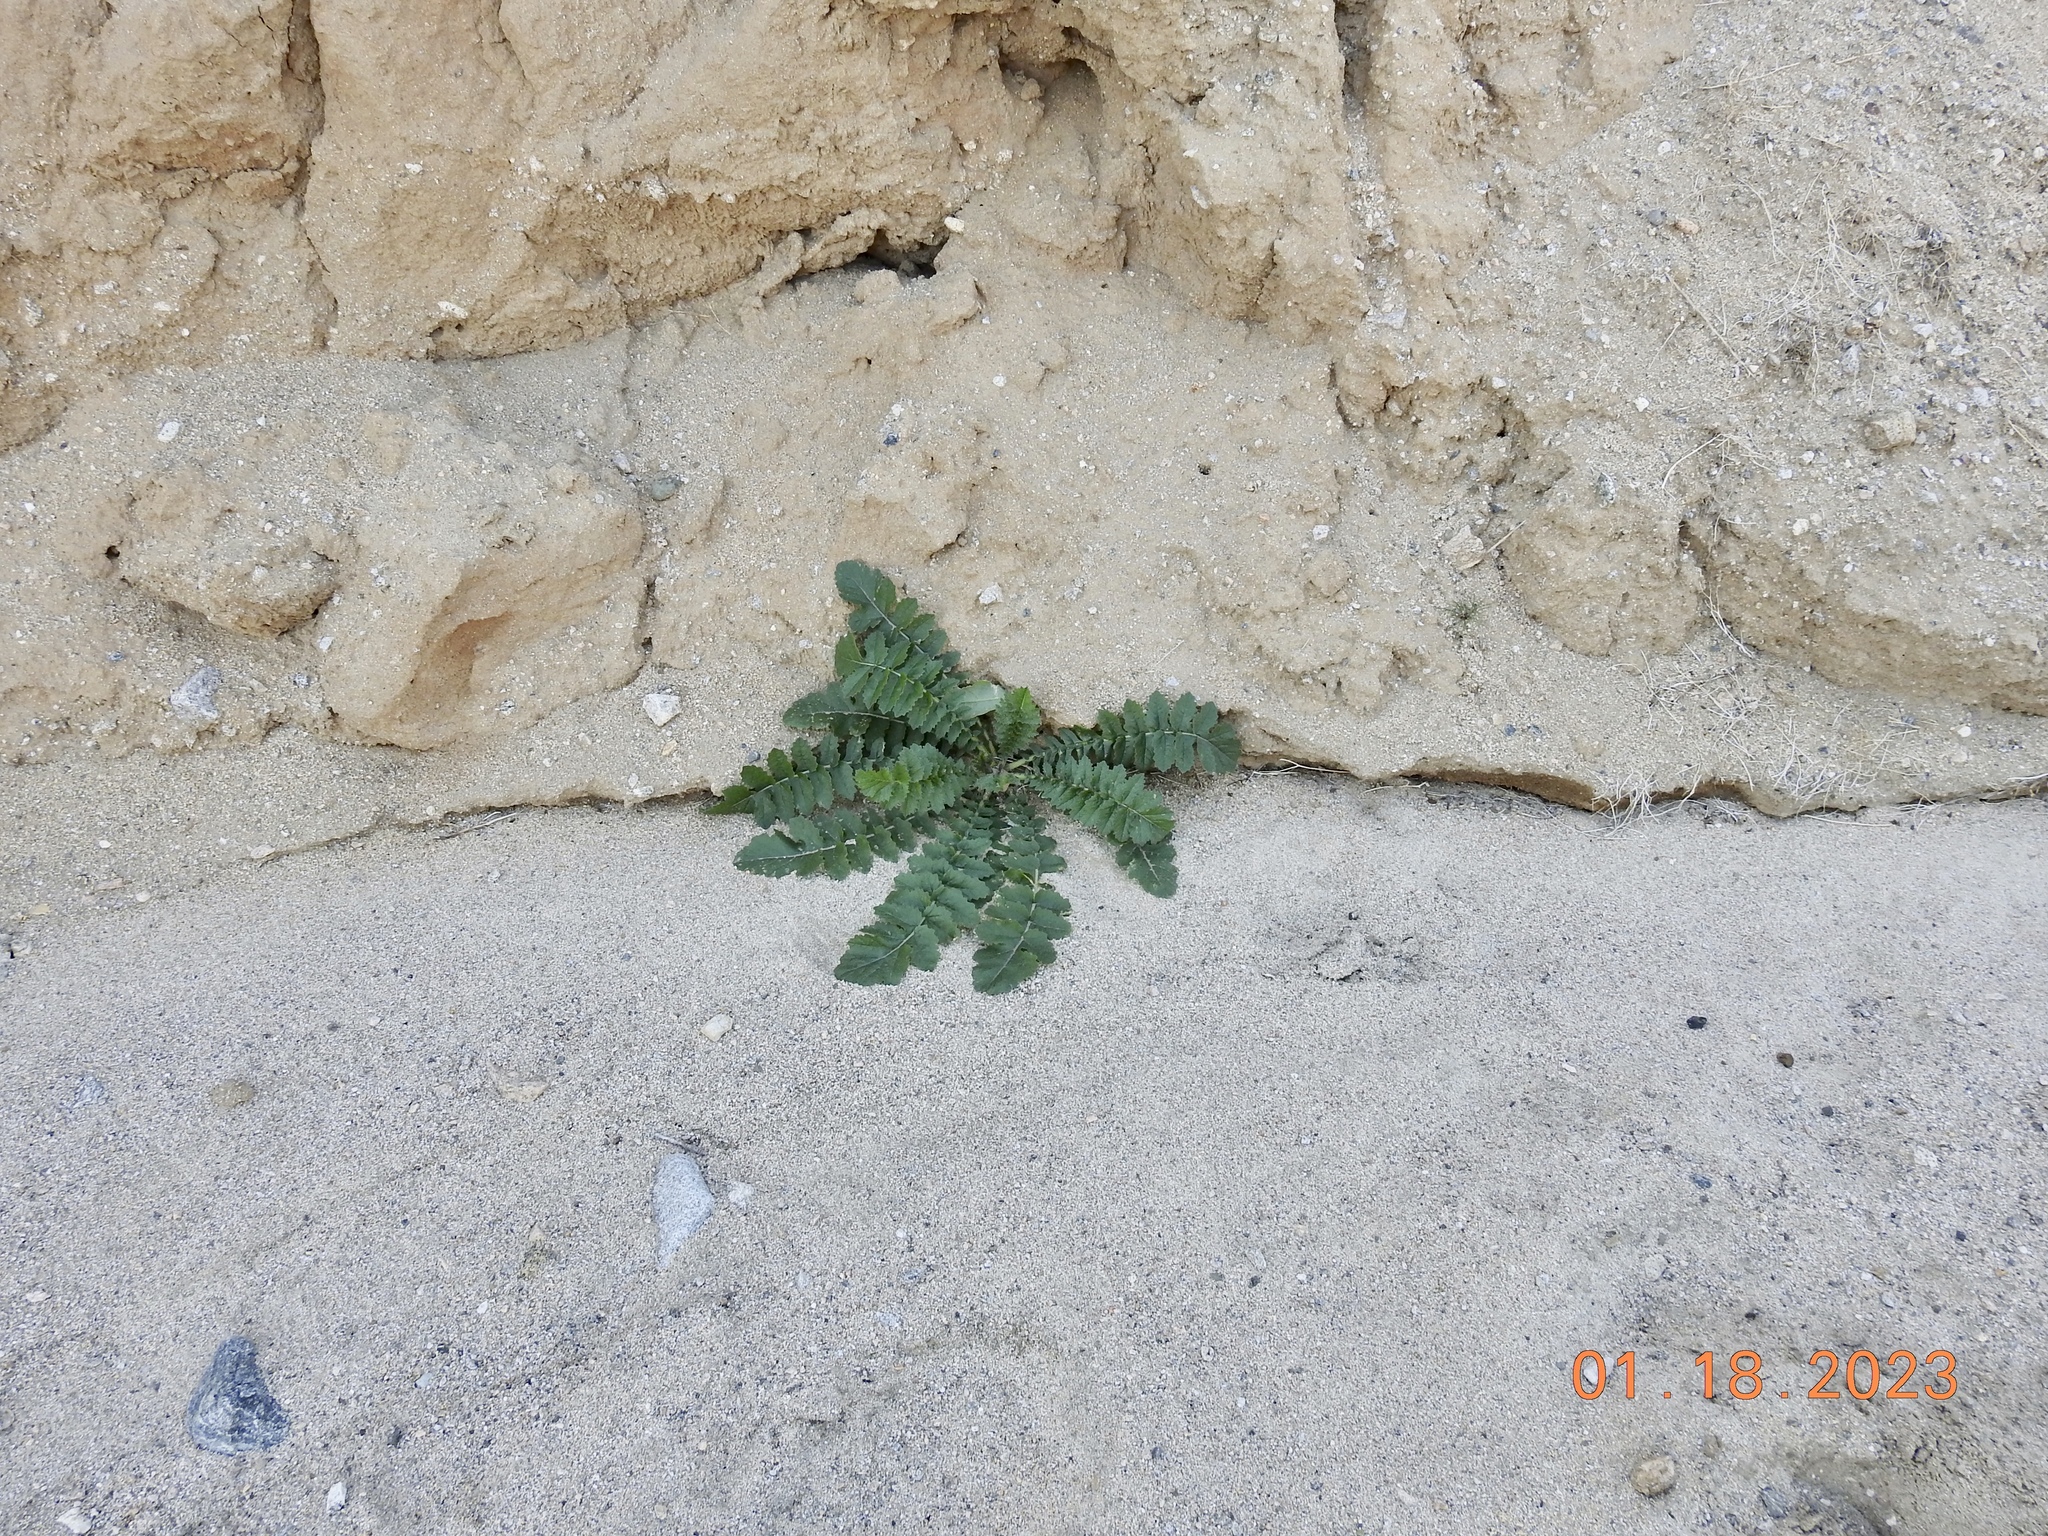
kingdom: Plantae
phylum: Tracheophyta
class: Magnoliopsida
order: Brassicales
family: Brassicaceae
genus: Brassica
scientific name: Brassica tournefortii
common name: Pale cabbage
